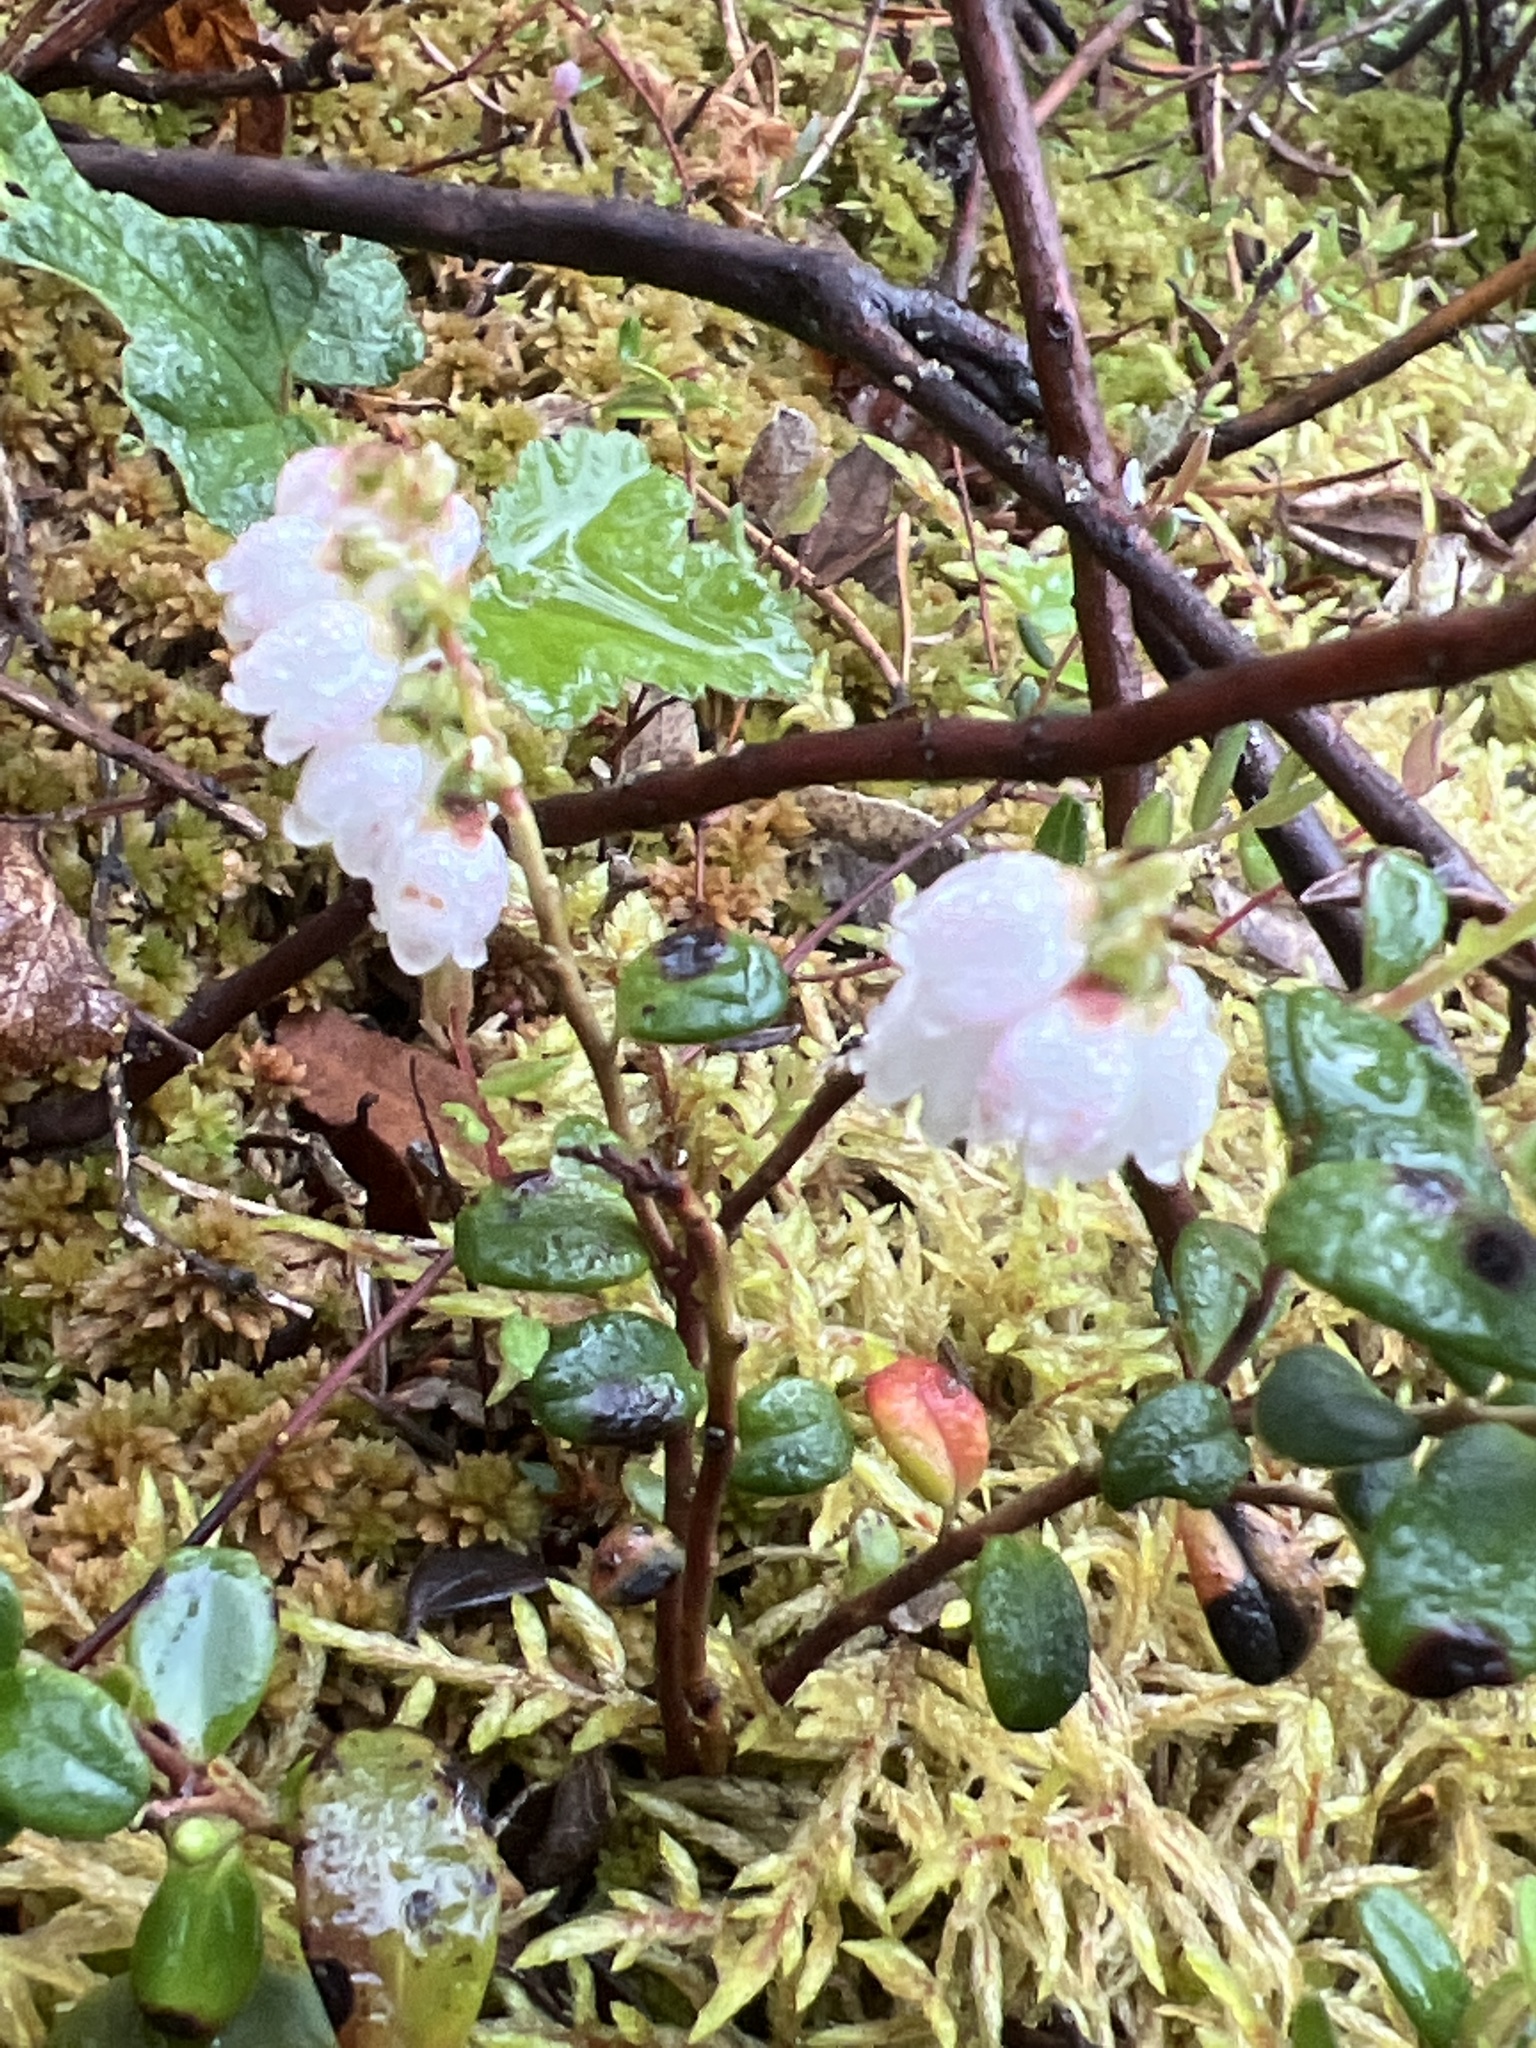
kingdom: Plantae
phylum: Tracheophyta
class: Magnoliopsida
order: Ericales
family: Ericaceae
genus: Vaccinium
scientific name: Vaccinium vitis-idaea
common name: Cowberry
